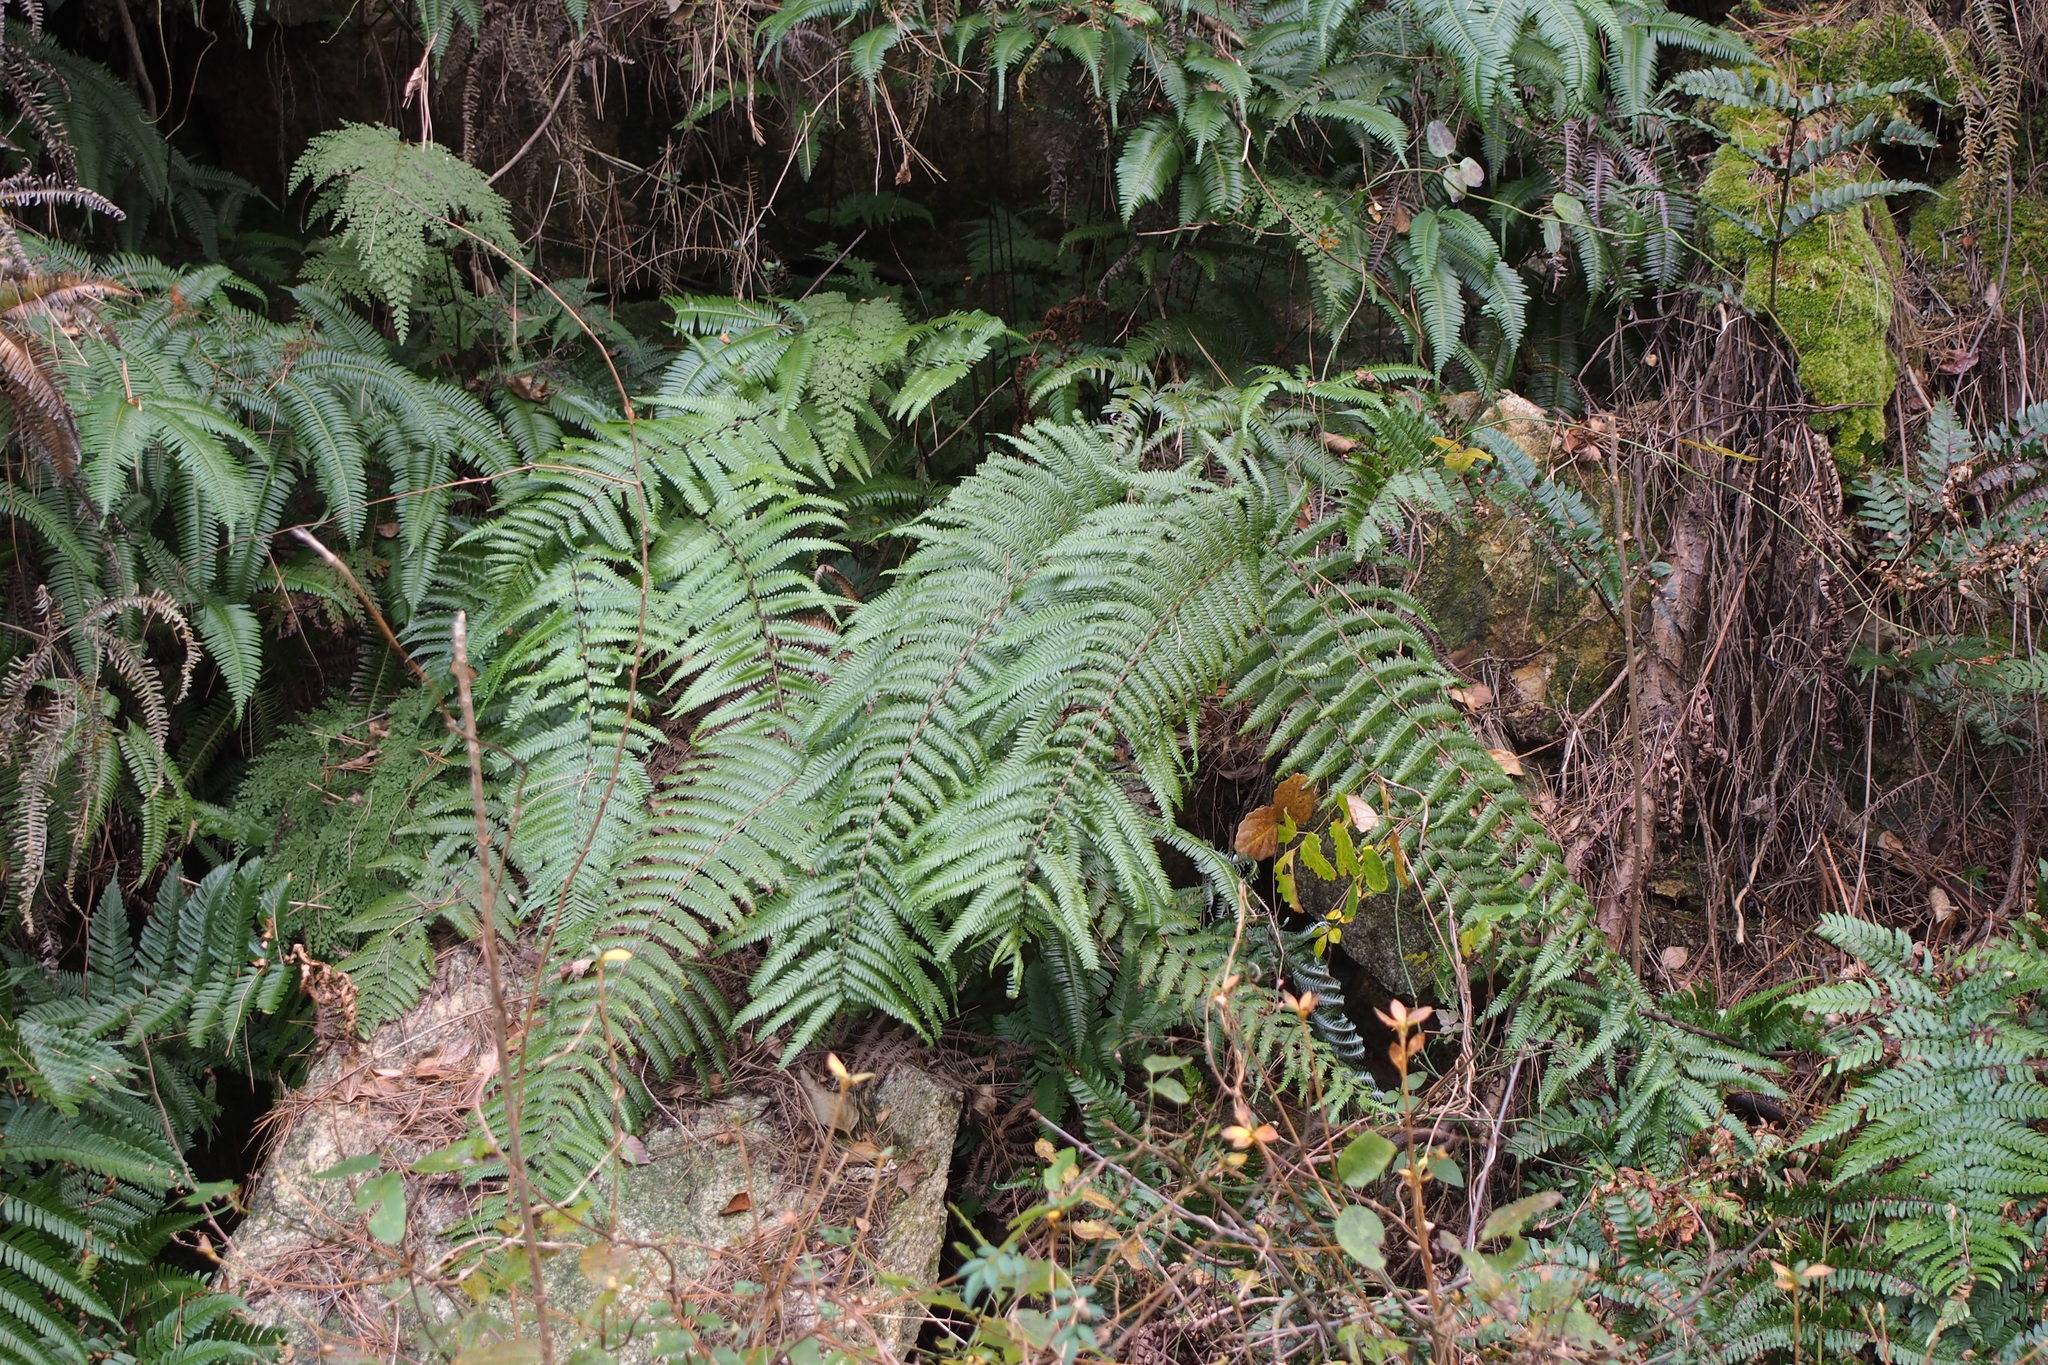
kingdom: Plantae
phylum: Tracheophyta
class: Polypodiopsida
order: Gleicheniales
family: Gleicheniaceae
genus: Diplopterygium
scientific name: Diplopterygium glaucum
